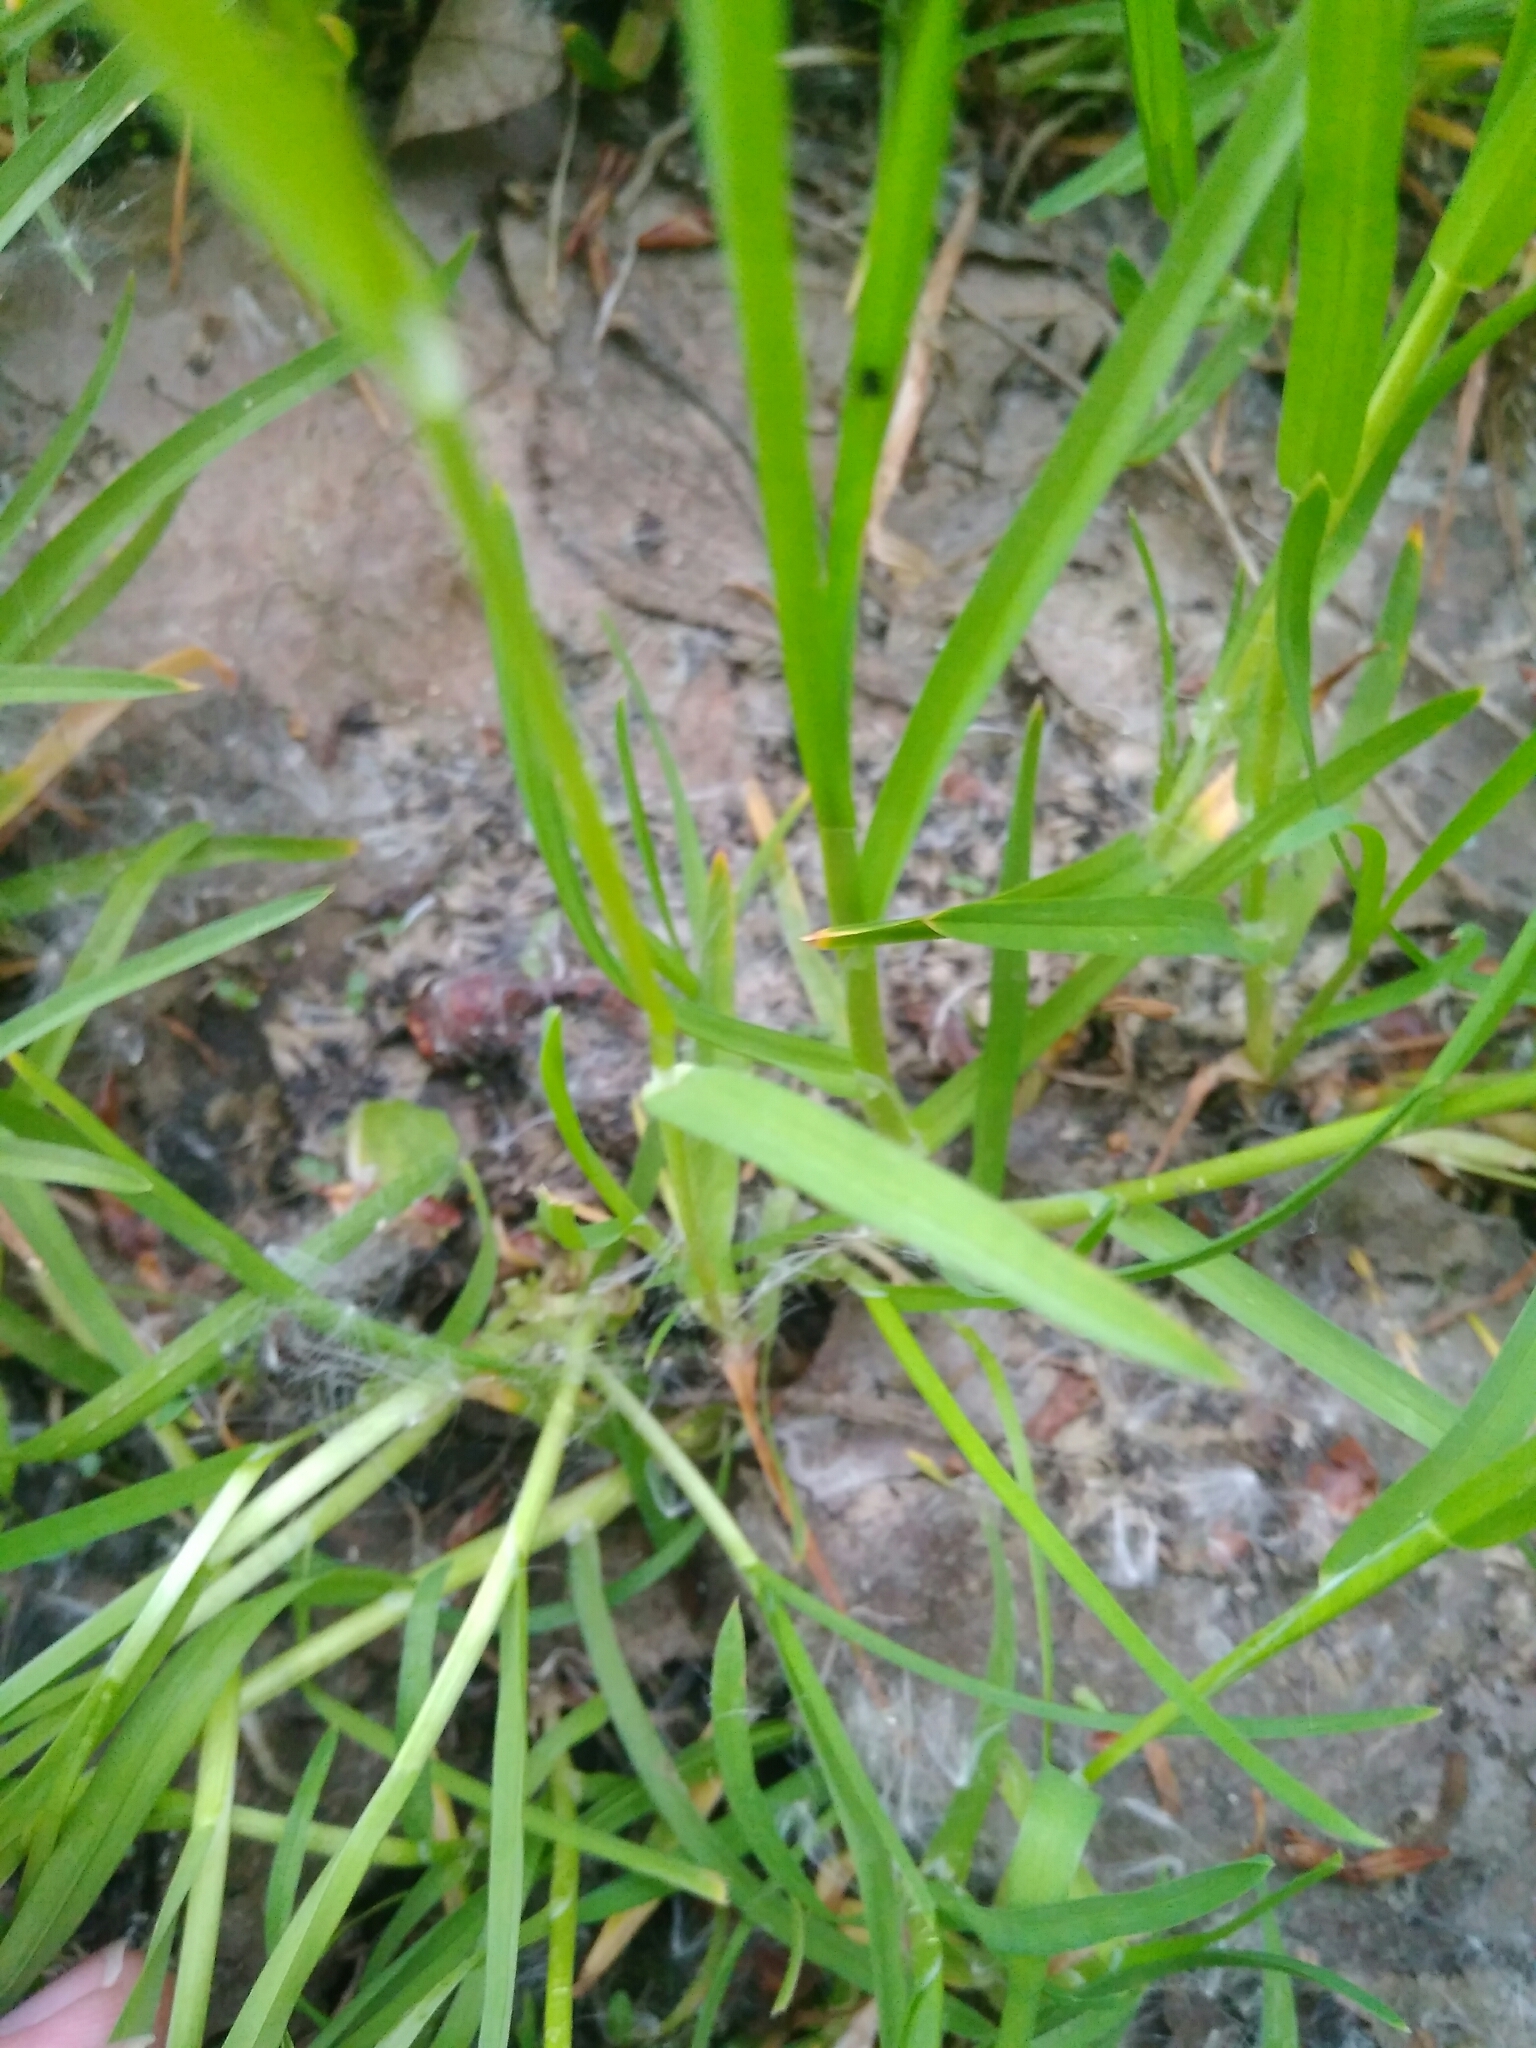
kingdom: Plantae
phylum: Tracheophyta
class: Liliopsida
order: Poales
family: Poaceae
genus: Poa
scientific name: Poa annua
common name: Annual bluegrass
